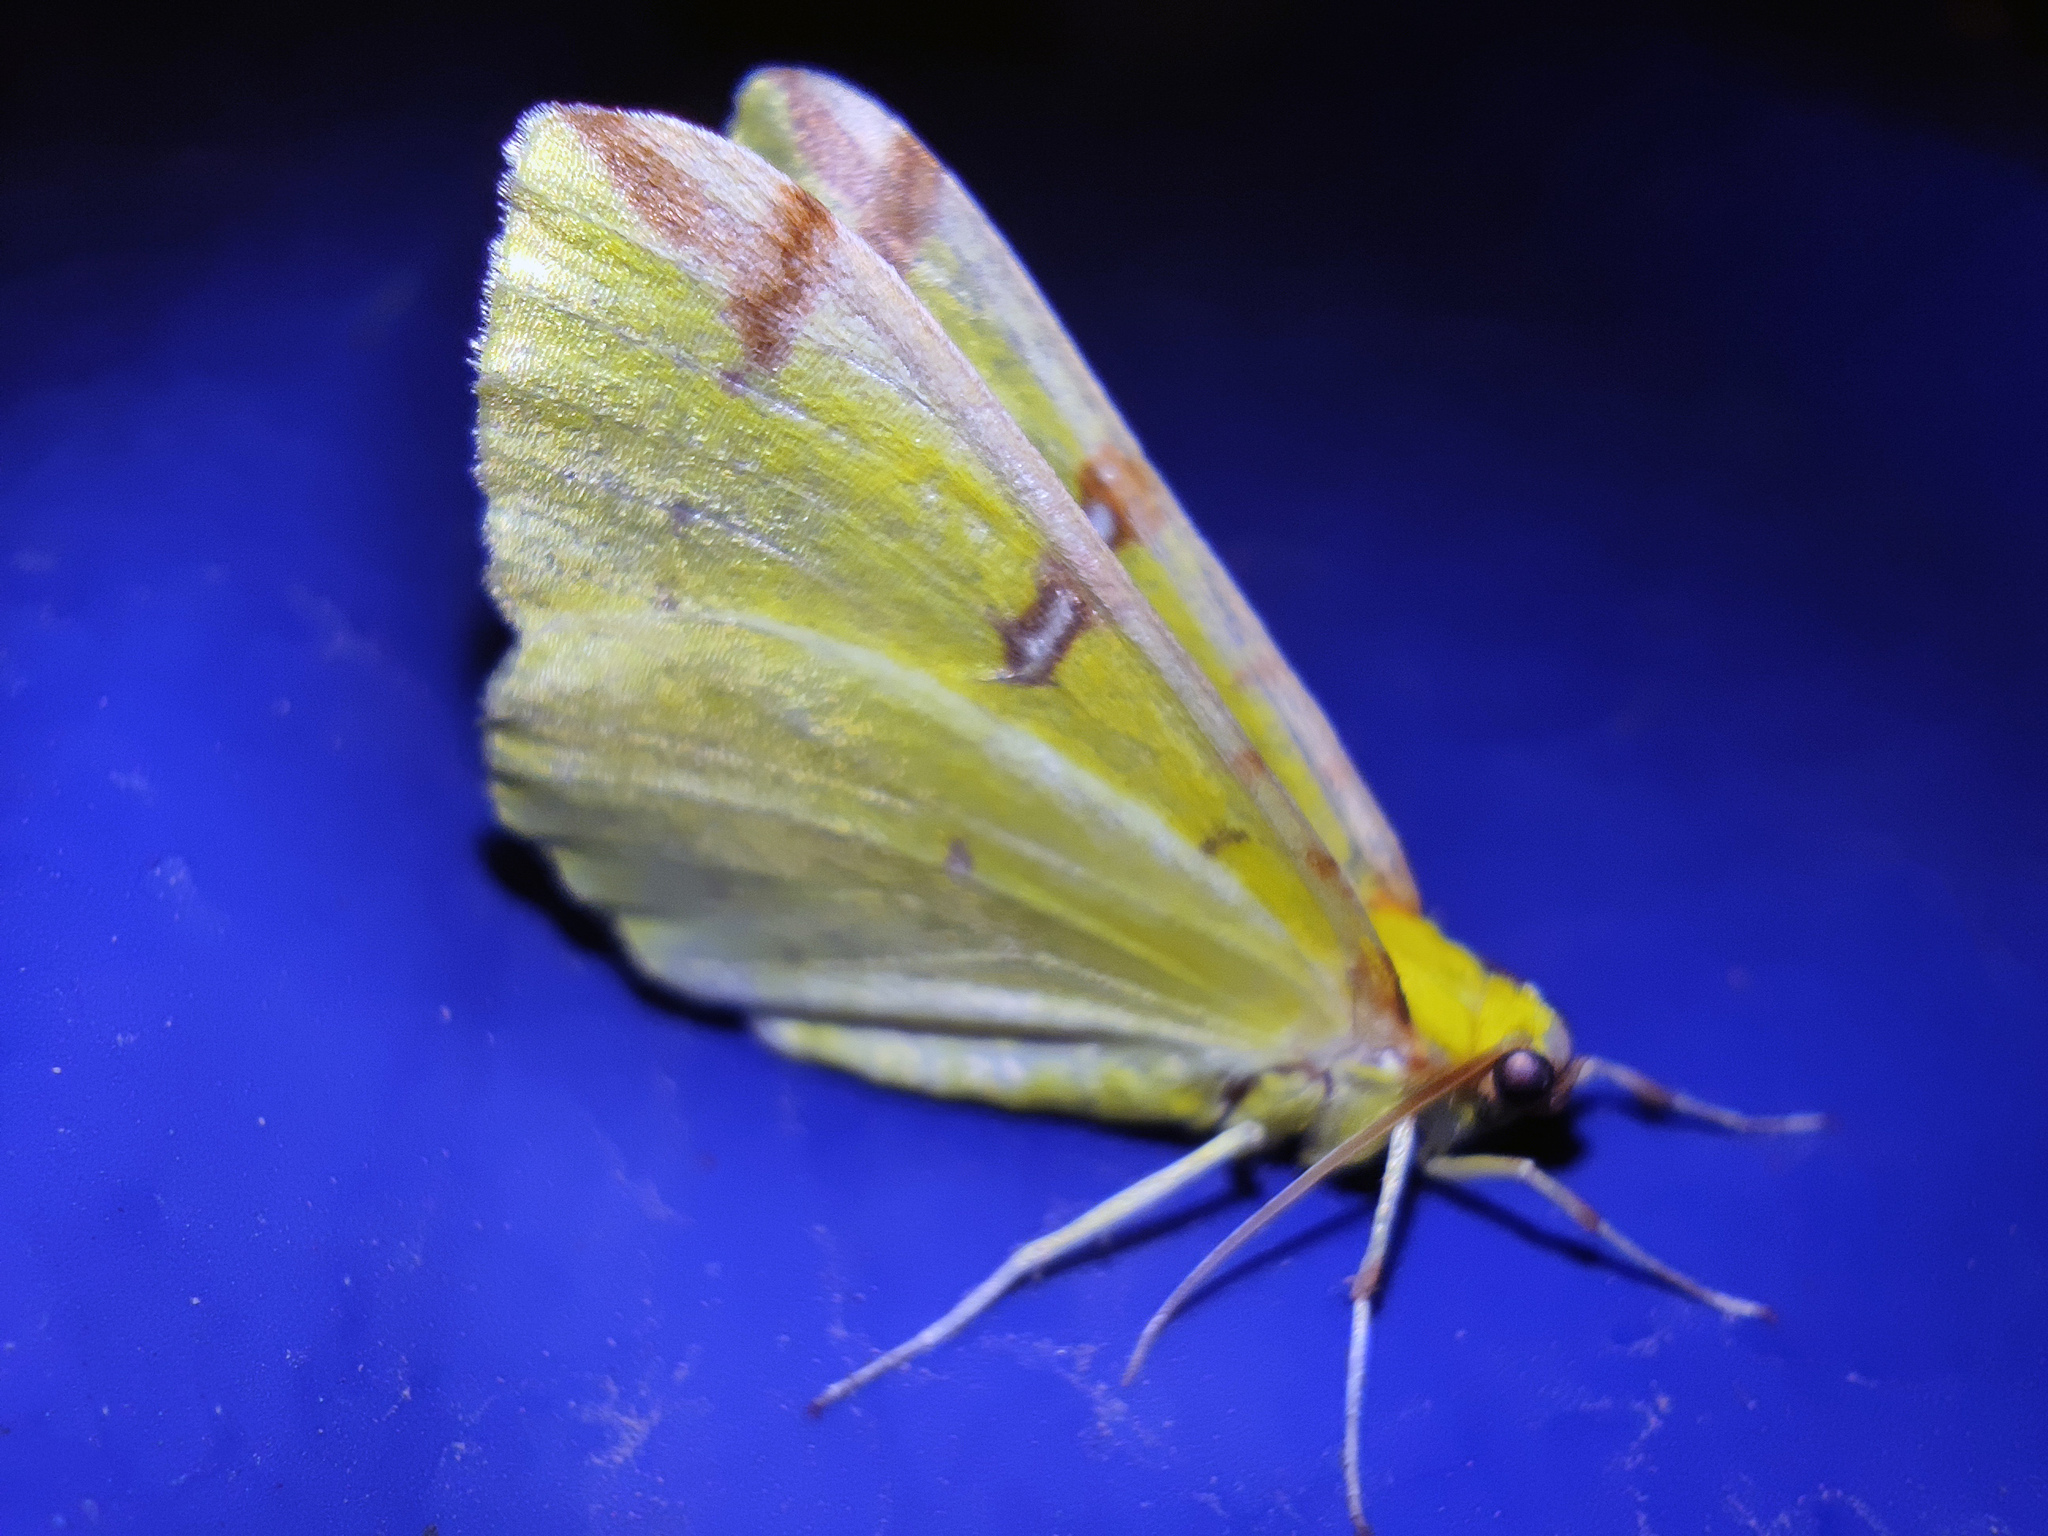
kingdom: Animalia
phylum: Arthropoda
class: Insecta
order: Lepidoptera
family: Geometridae
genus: Opisthograptis
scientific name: Opisthograptis luteolata
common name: Brimstone moth
